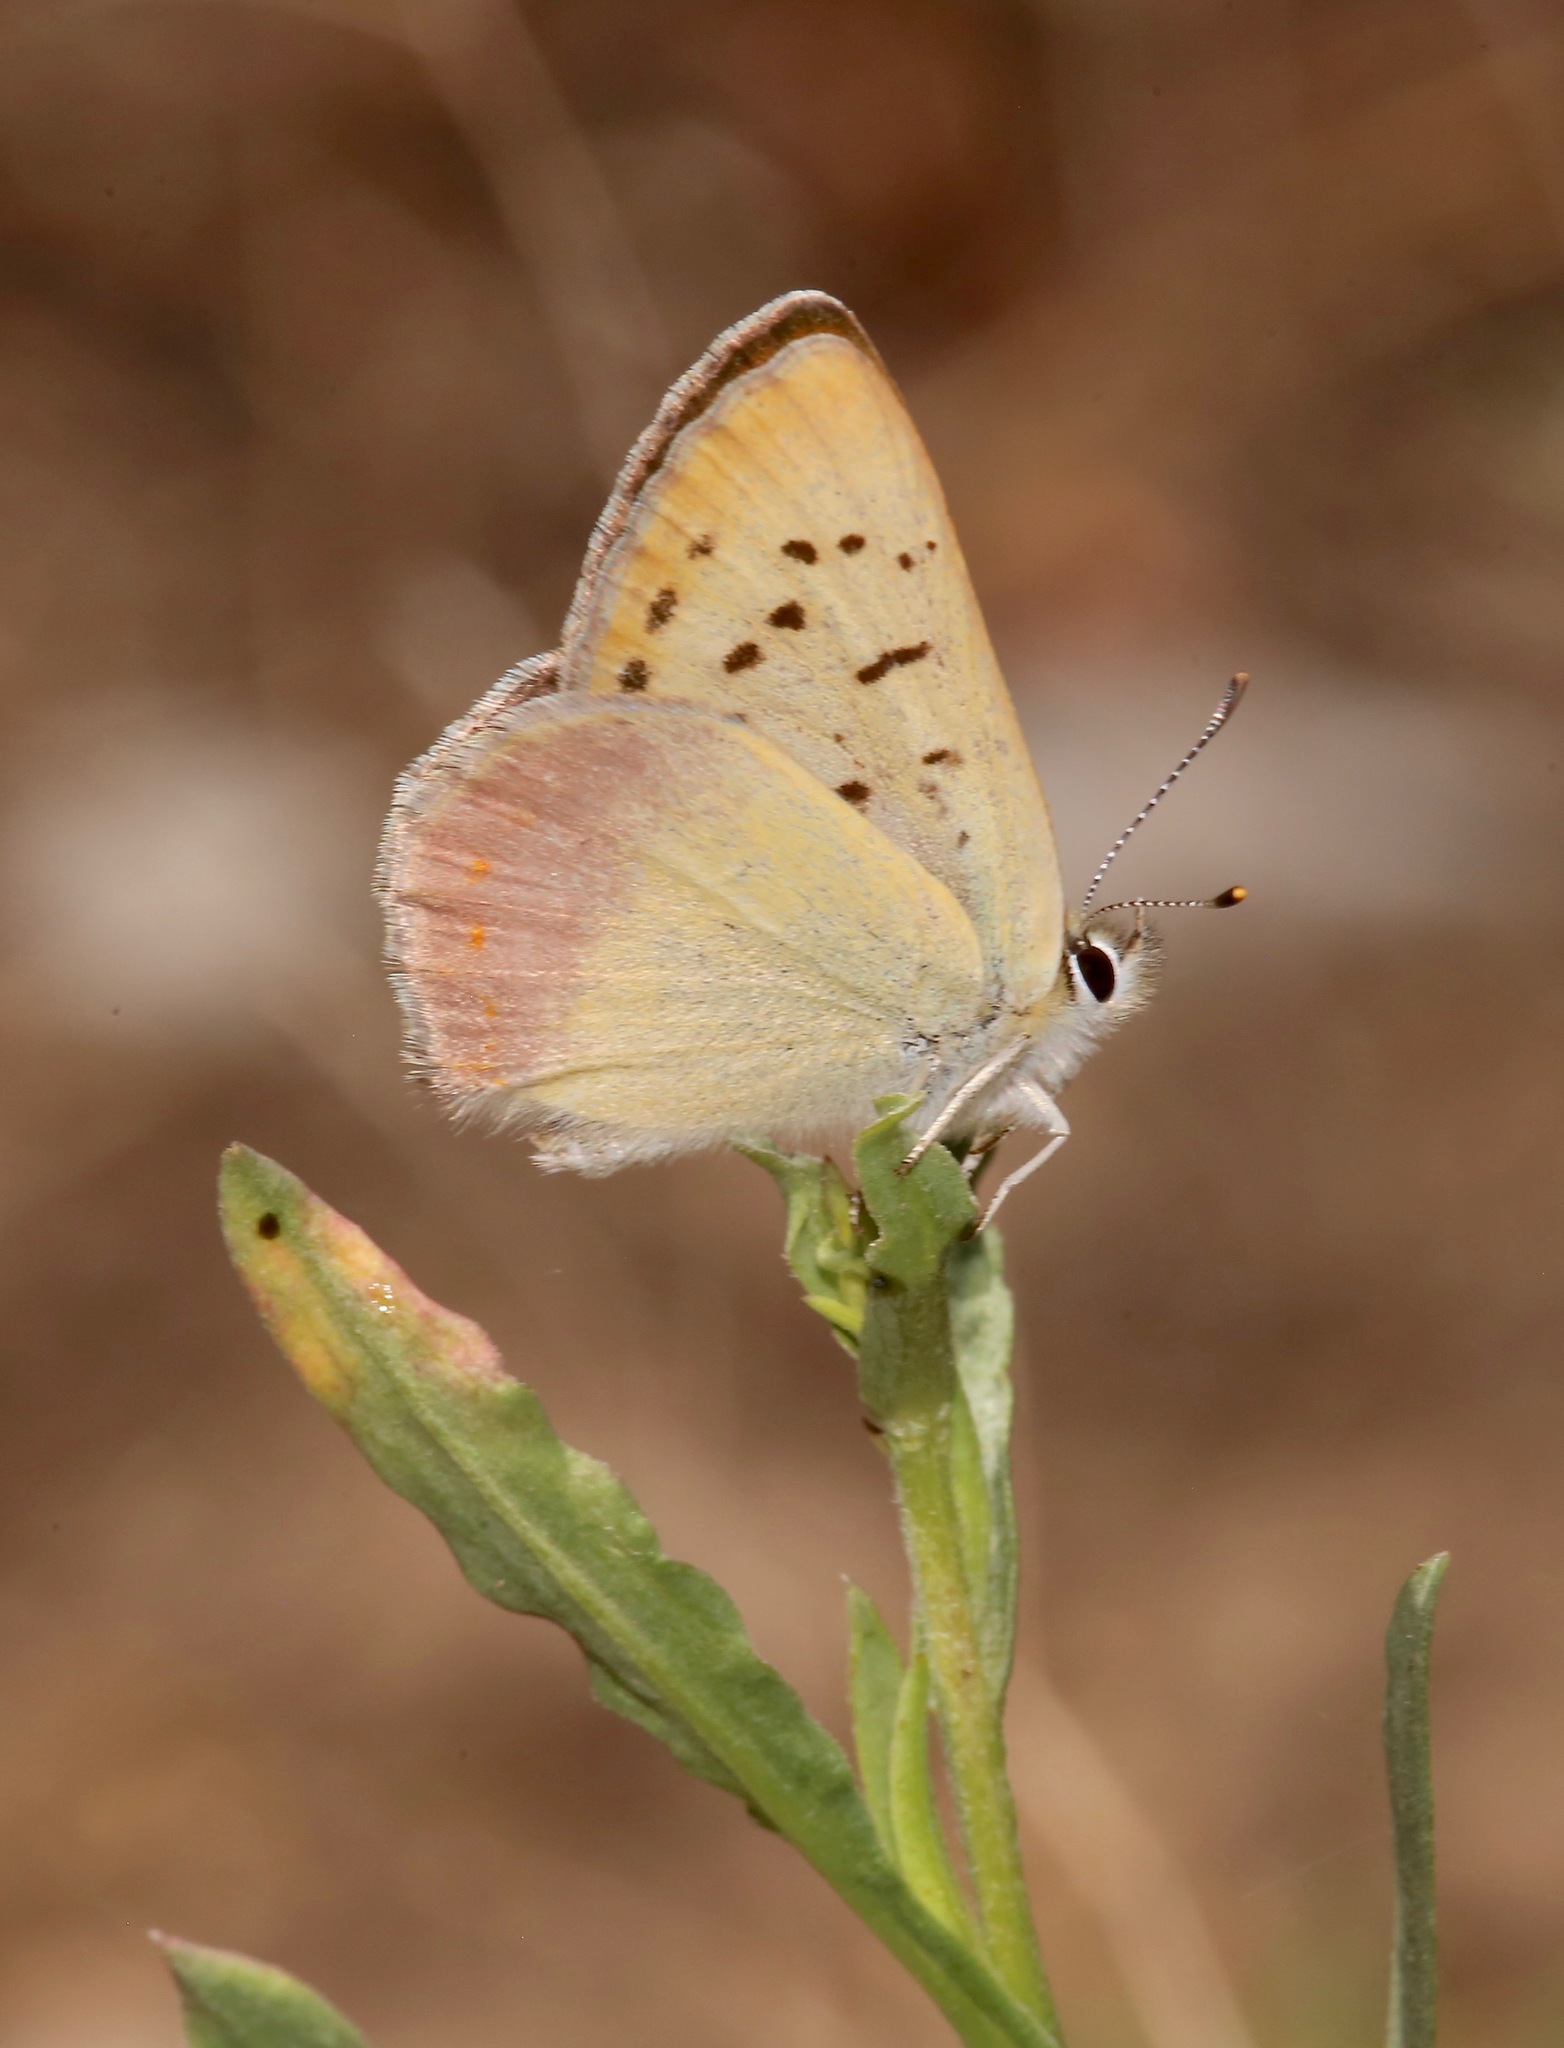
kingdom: Animalia
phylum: Arthropoda
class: Insecta
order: Lepidoptera
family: Lycaenidae
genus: Tharsalea
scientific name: Tharsalea nivalis
